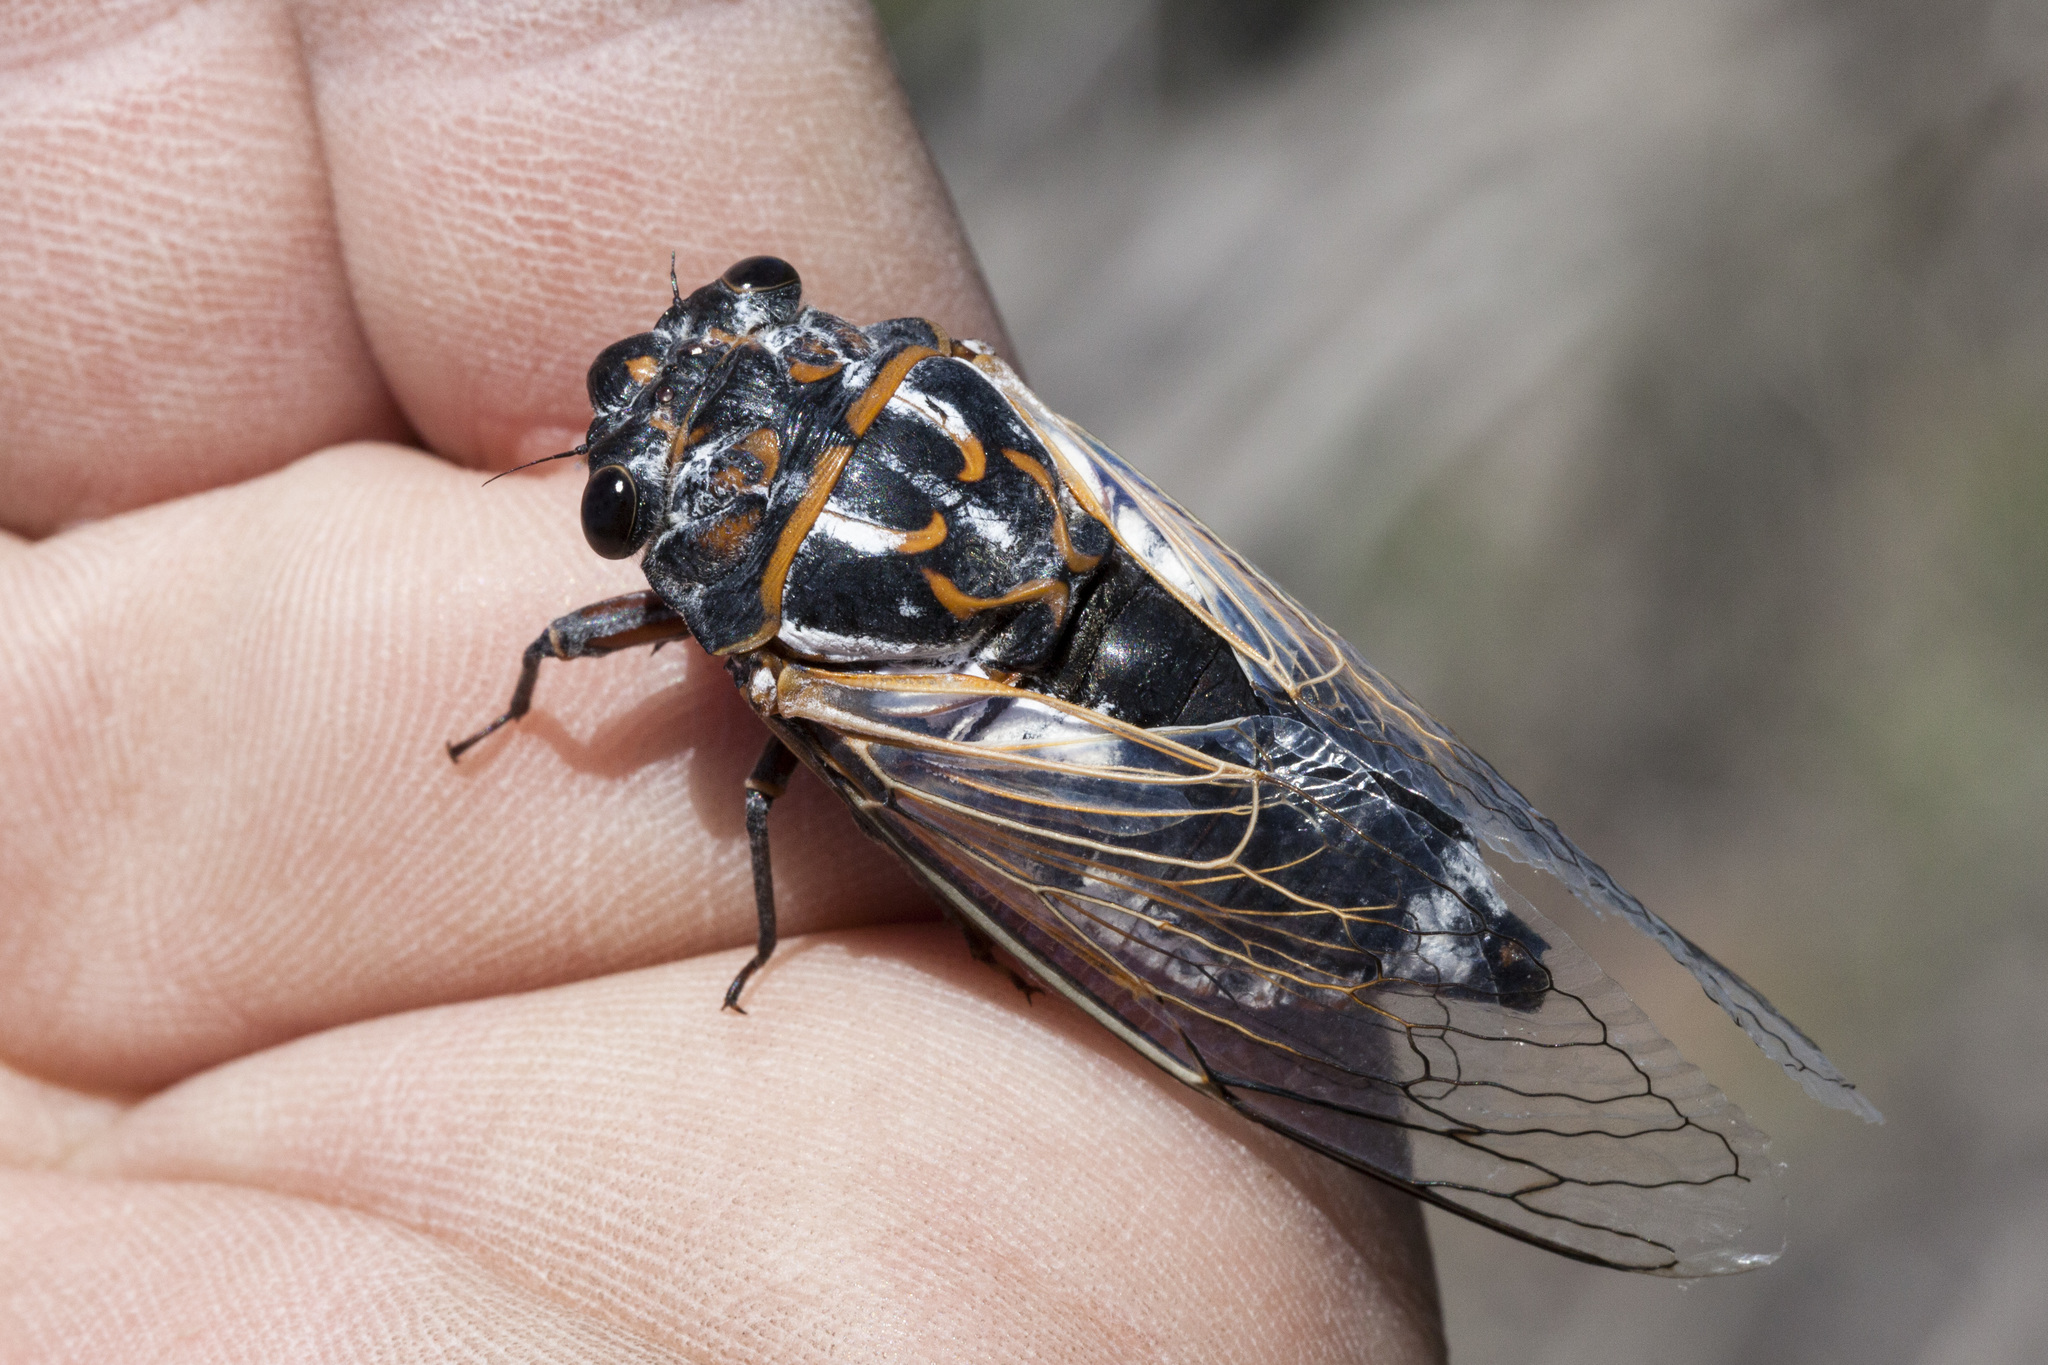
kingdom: Animalia
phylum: Arthropoda
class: Insecta
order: Hemiptera
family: Cicadidae
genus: Hadoa
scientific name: Hadoa townsendii
